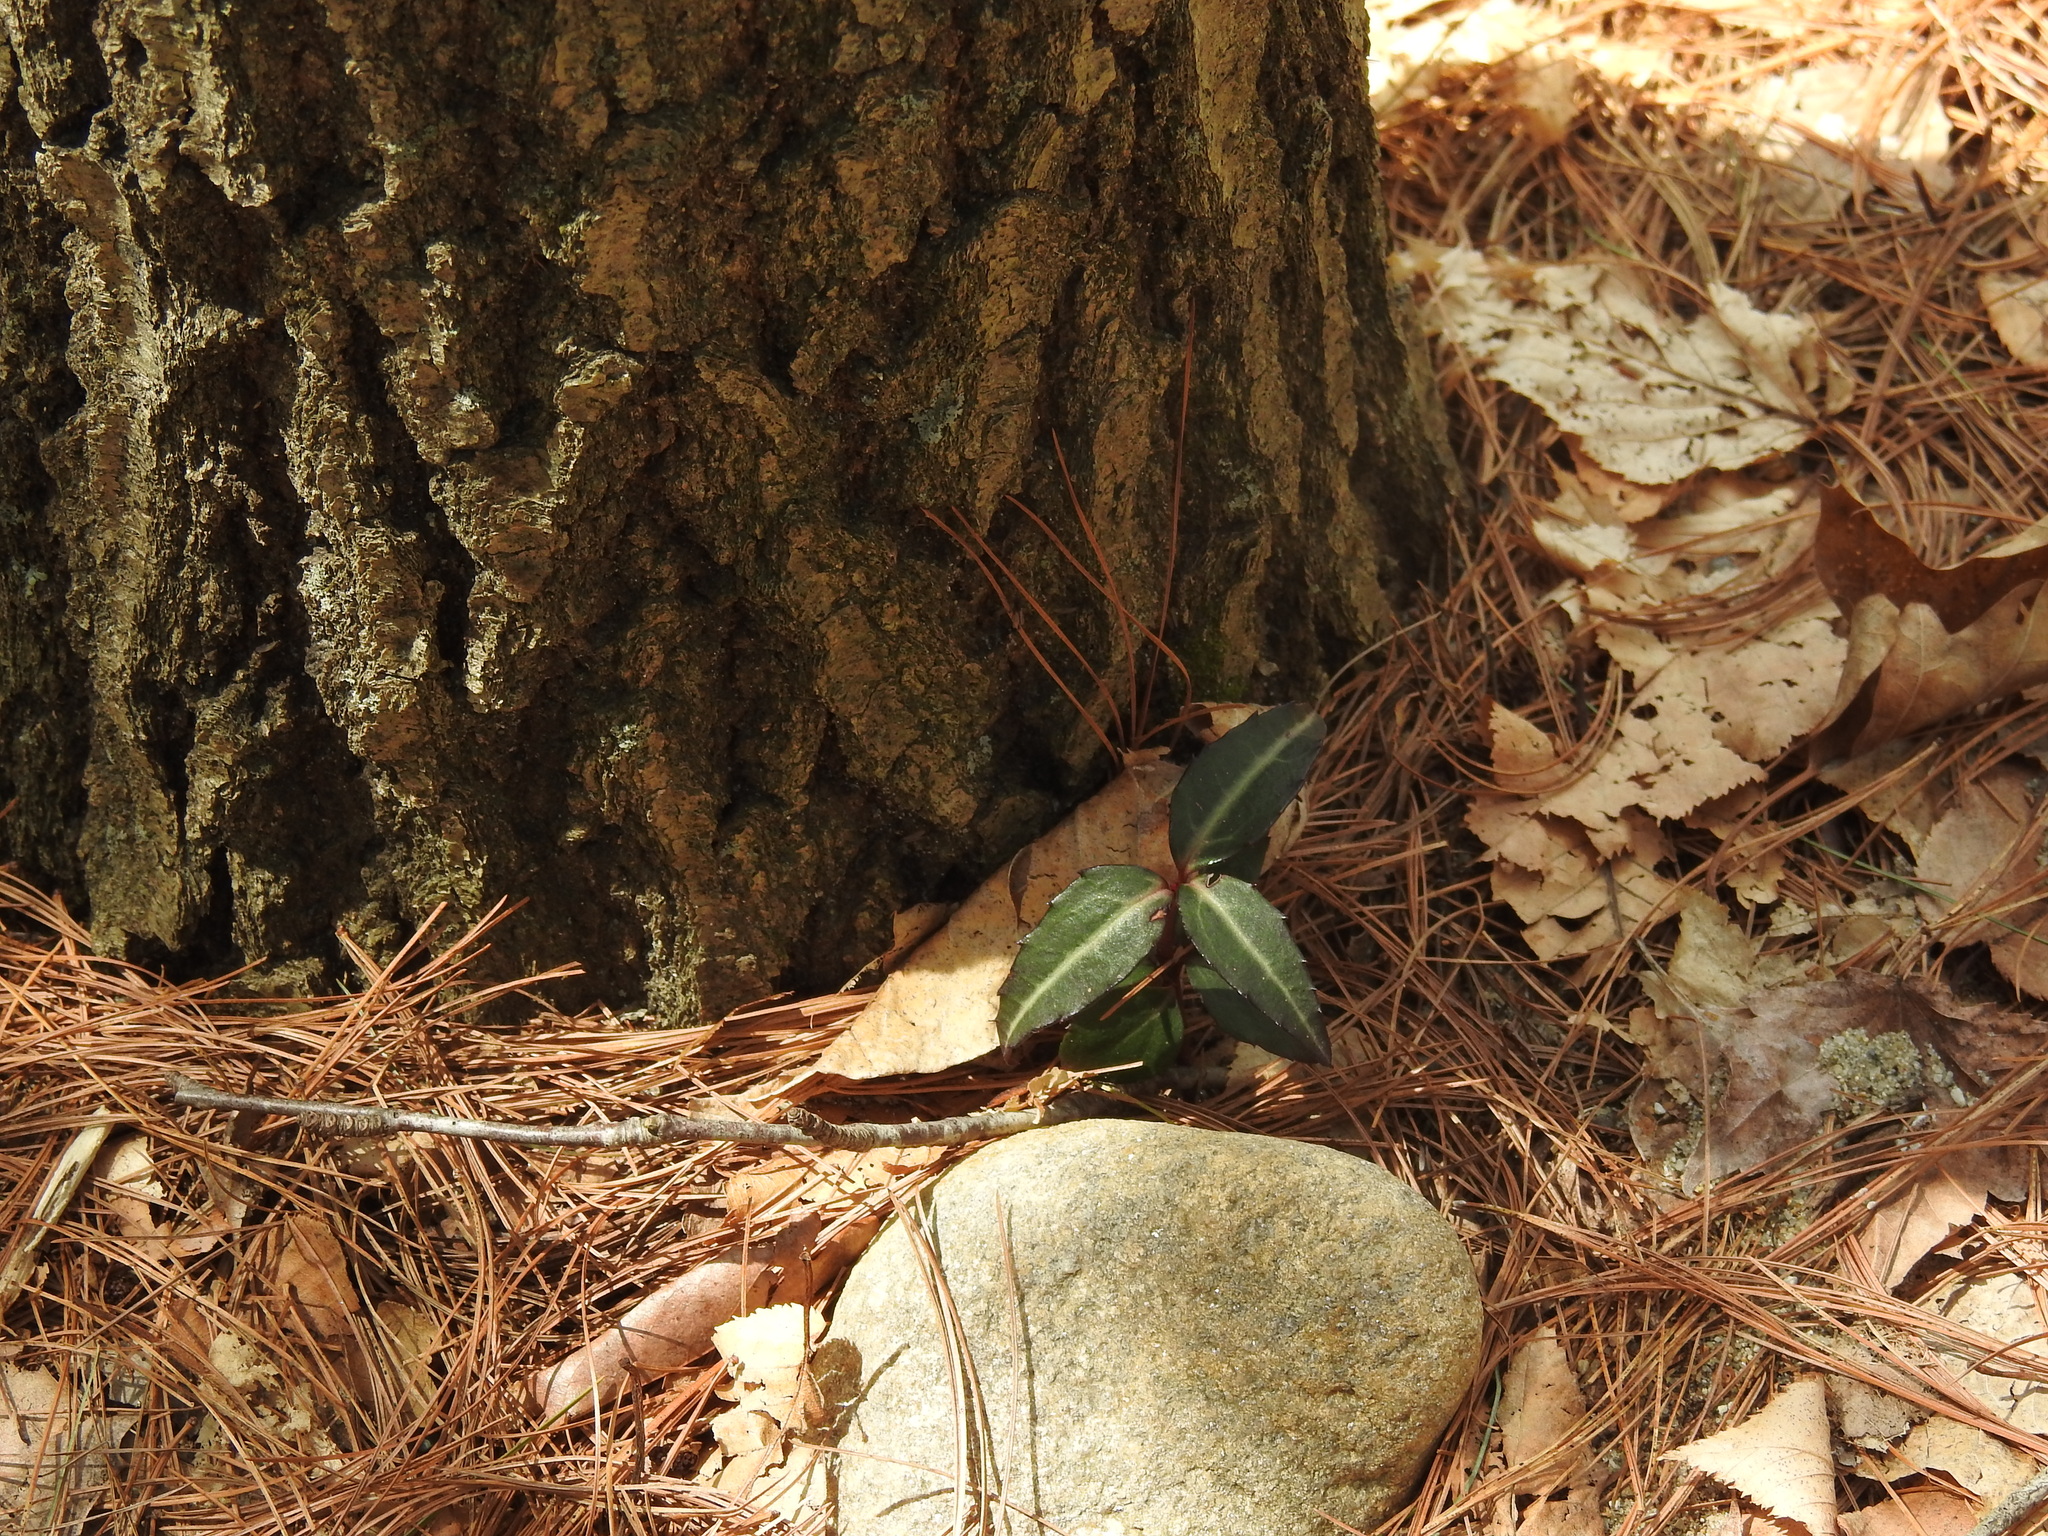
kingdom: Plantae
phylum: Tracheophyta
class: Magnoliopsida
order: Ericales
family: Ericaceae
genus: Chimaphila
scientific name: Chimaphila maculata
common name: Spotted pipsissewa
